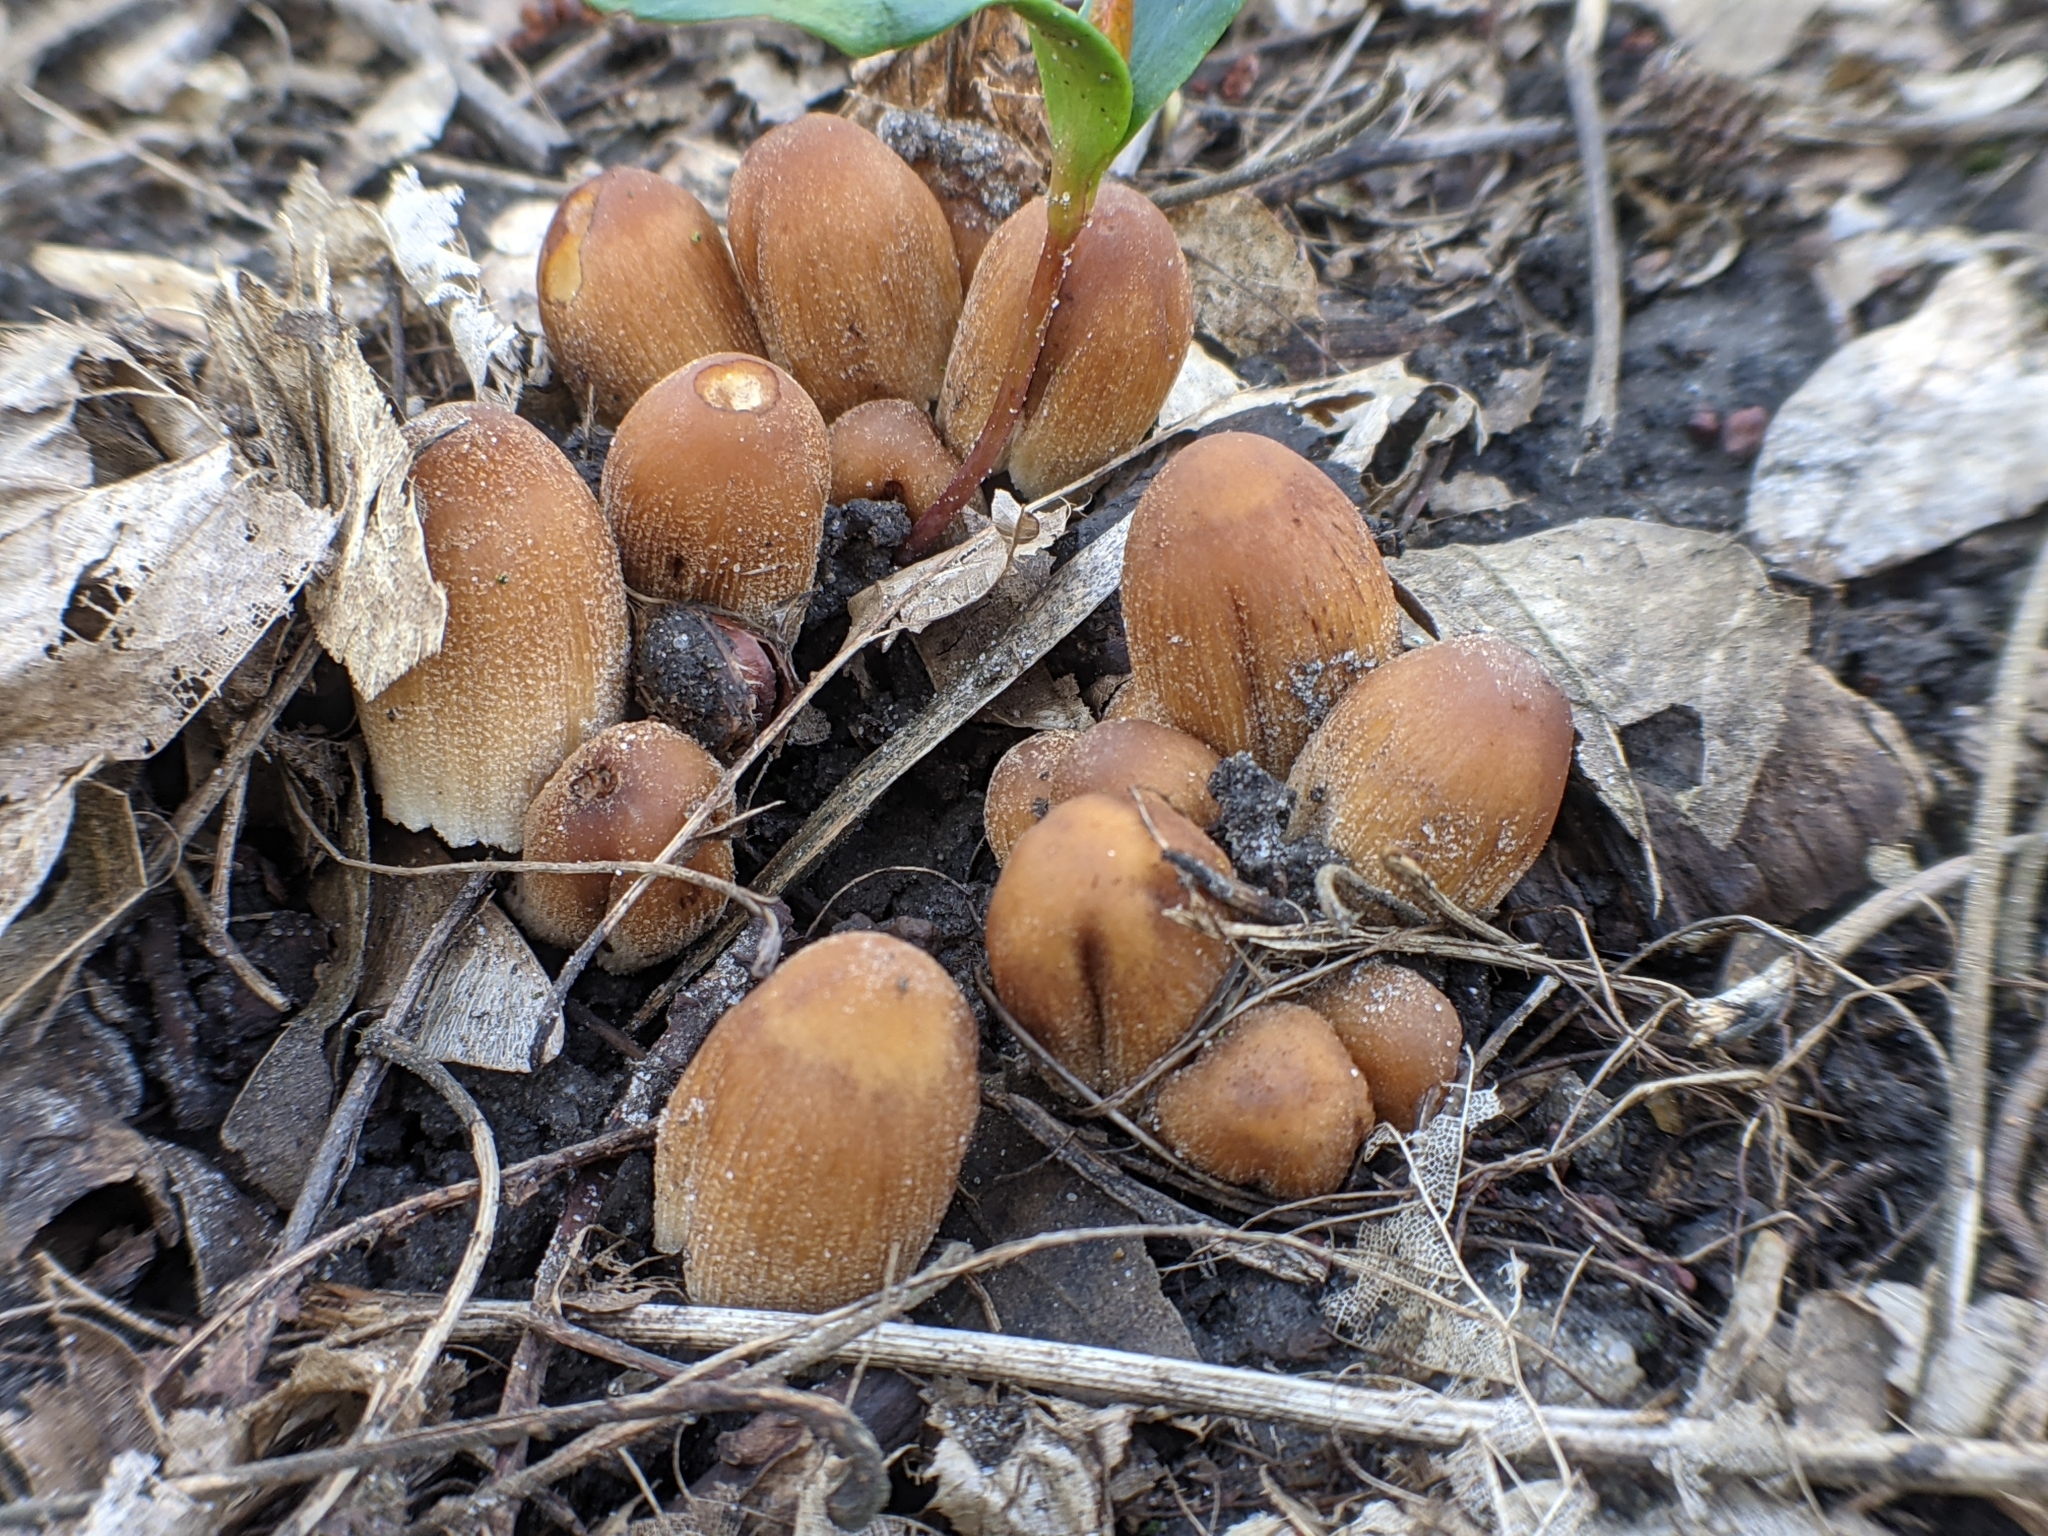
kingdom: Fungi
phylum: Basidiomycota
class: Agaricomycetes
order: Agaricales
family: Psathyrellaceae
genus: Coprinellus
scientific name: Coprinellus micaceus
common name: Glistening ink-cap
